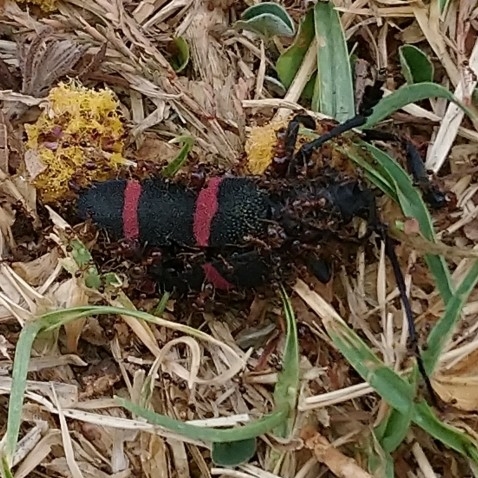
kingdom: Animalia
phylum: Arthropoda
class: Insecta
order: Coleoptera
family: Cerambycidae
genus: Ceroplesis
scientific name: Ceroplesis orientalis
